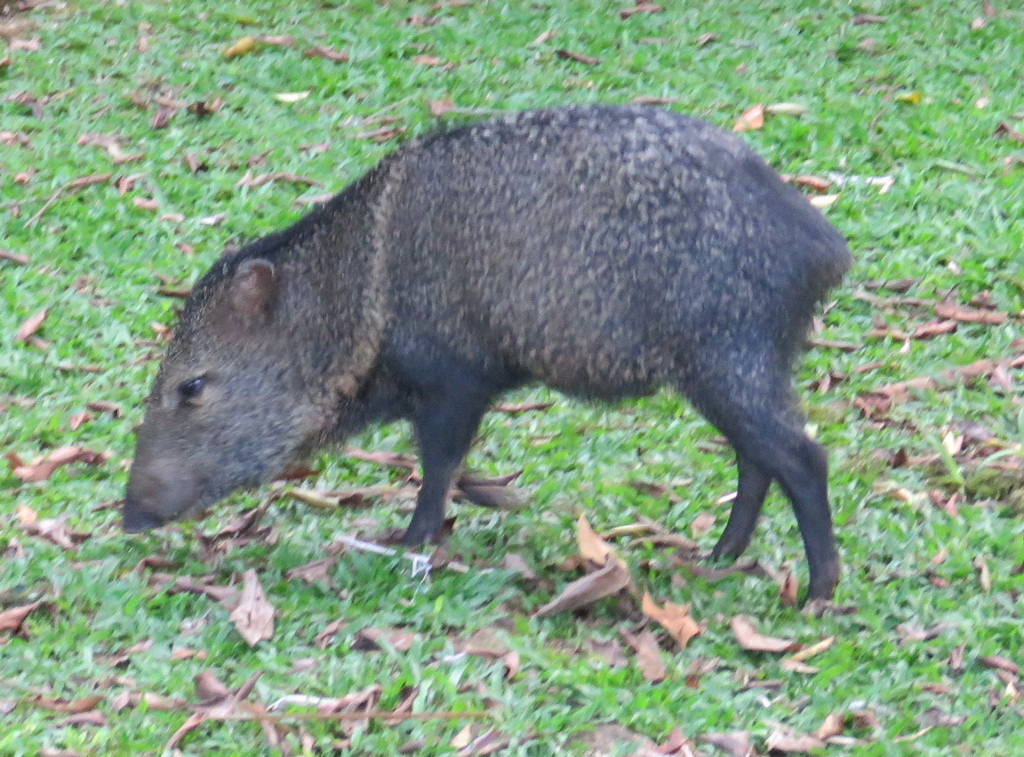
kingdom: Animalia
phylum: Chordata
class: Mammalia
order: Artiodactyla
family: Tayassuidae
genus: Pecari
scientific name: Pecari tajacu
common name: Collared peccary
